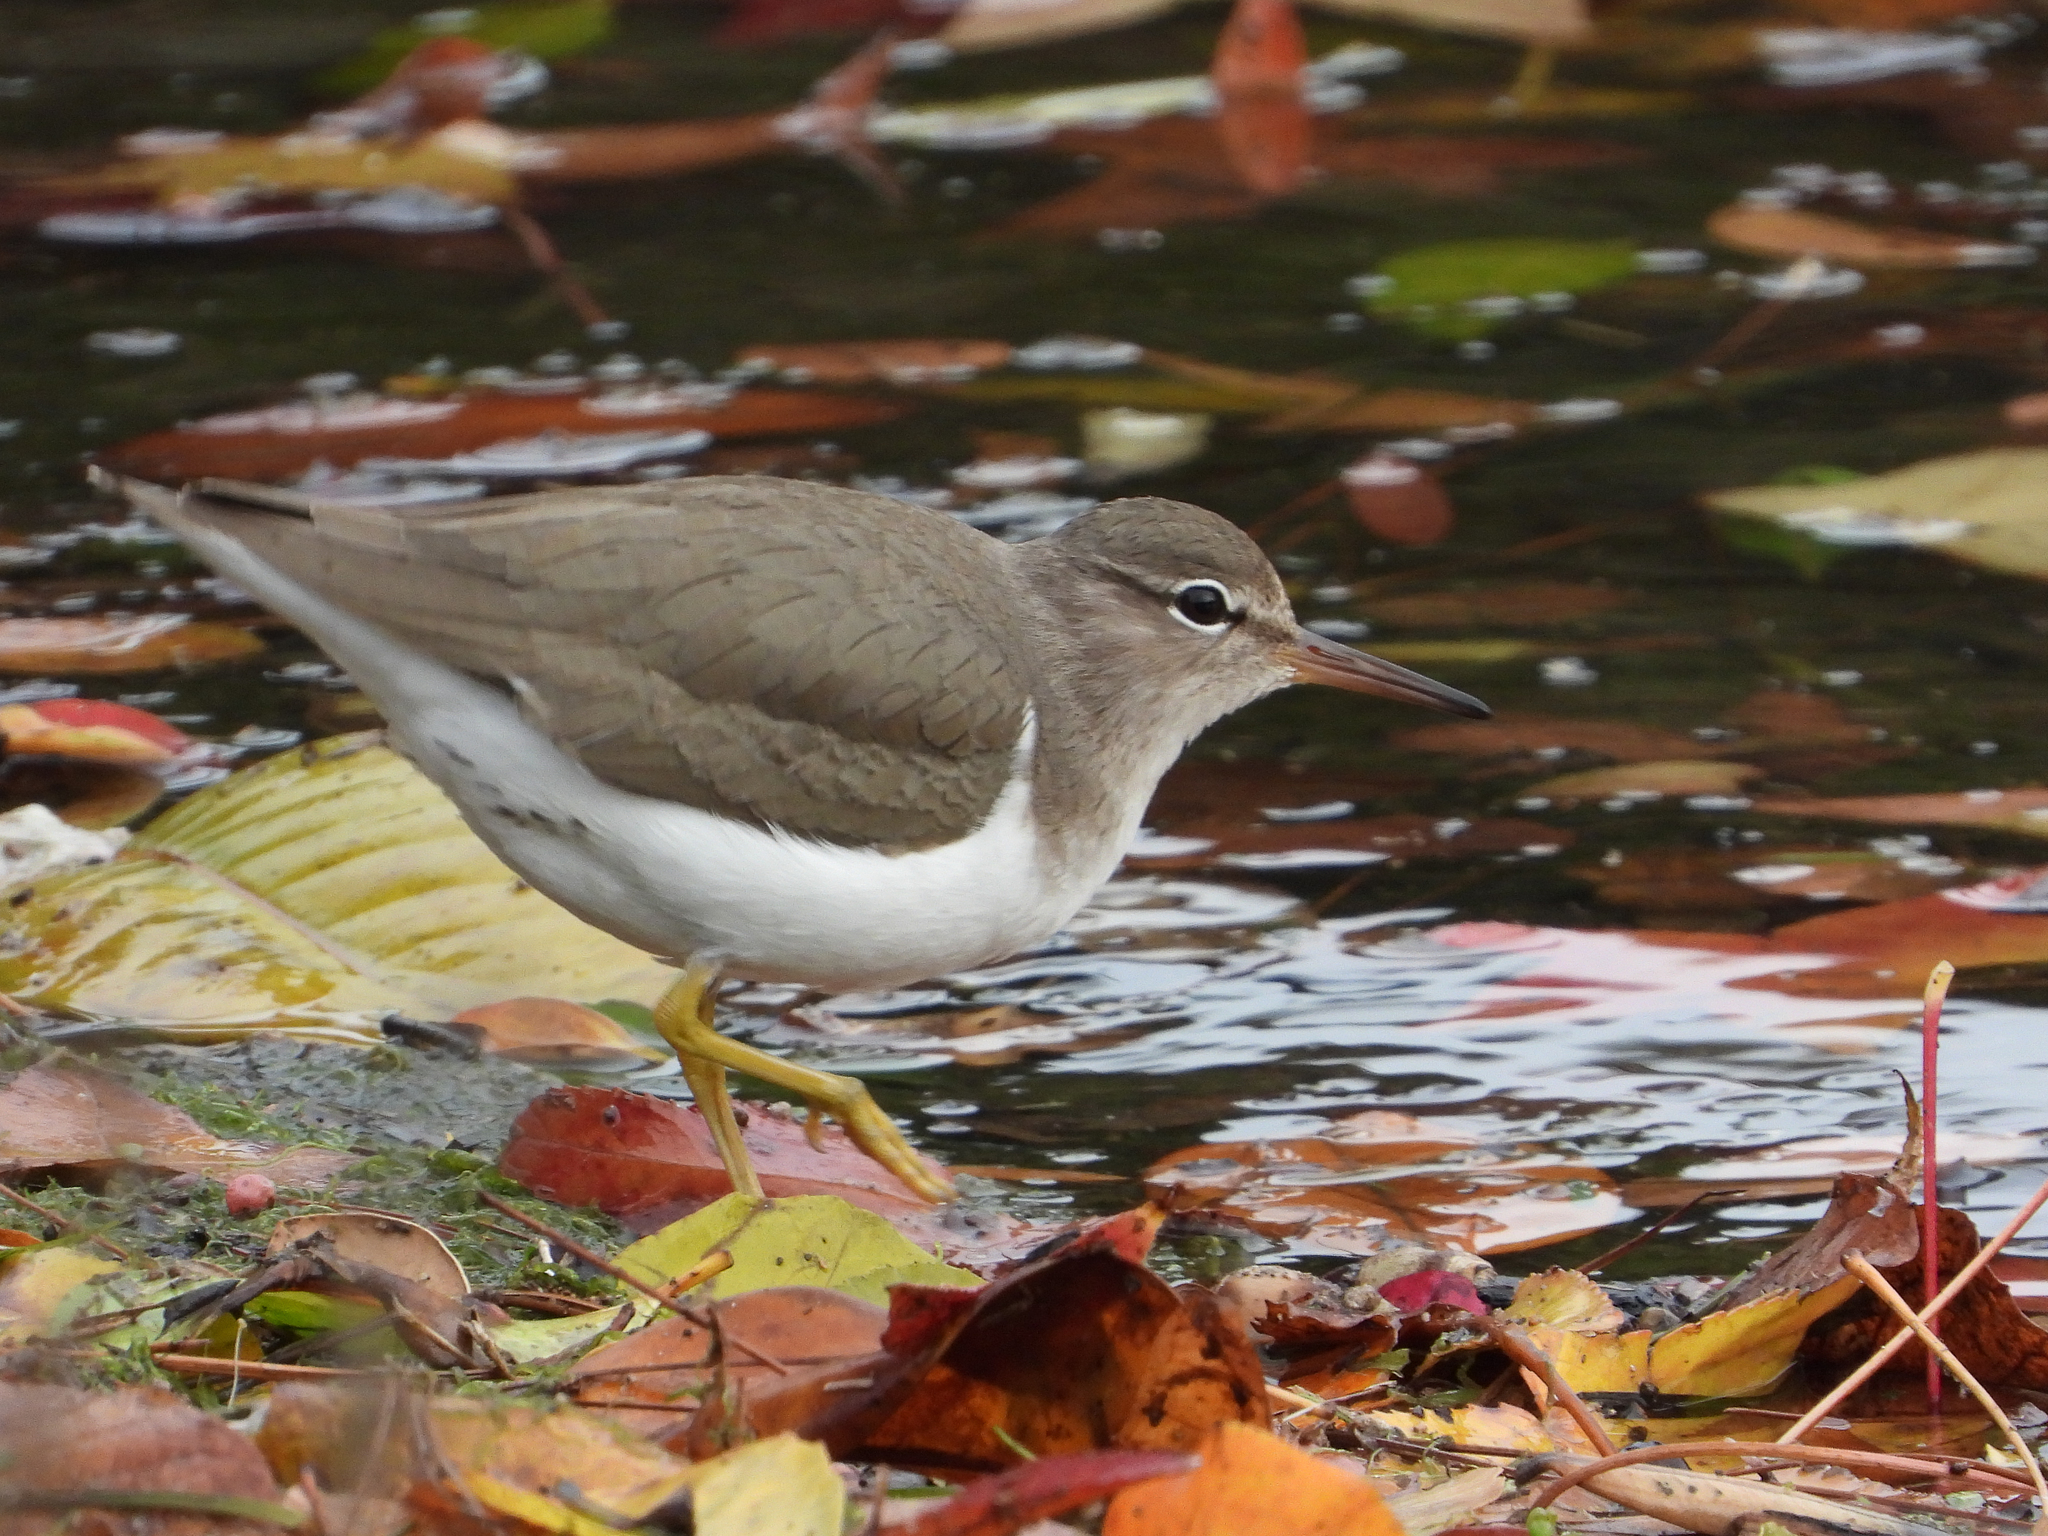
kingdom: Animalia
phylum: Chordata
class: Aves
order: Charadriiformes
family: Scolopacidae
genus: Actitis
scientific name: Actitis macularius
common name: Spotted sandpiper
